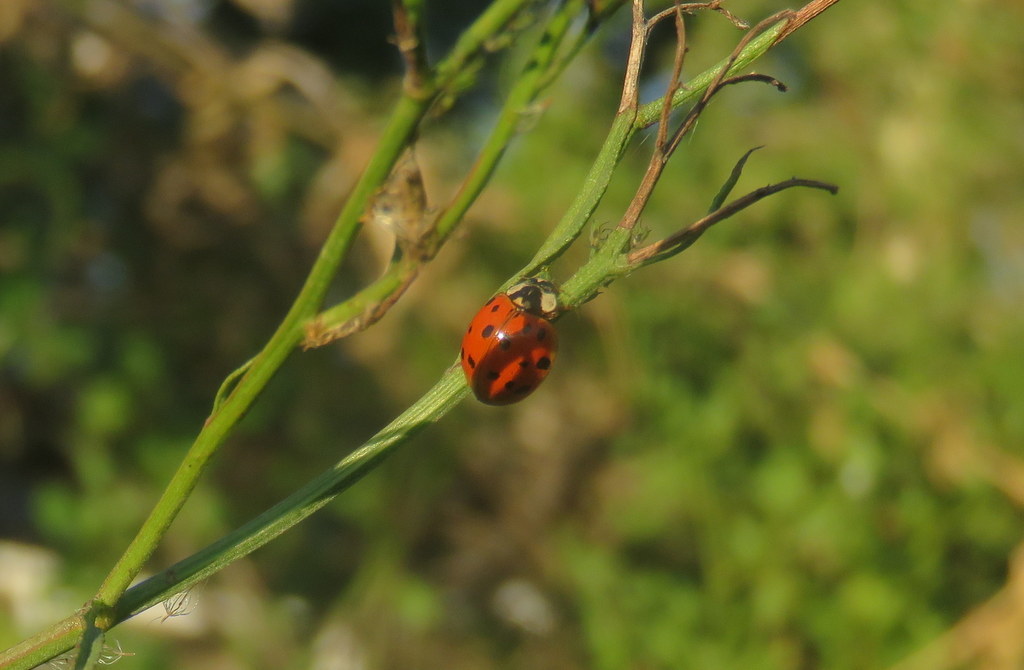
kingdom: Animalia
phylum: Arthropoda
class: Insecta
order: Coleoptera
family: Coccinellidae
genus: Harmonia
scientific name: Harmonia axyridis
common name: Harlequin ladybird
